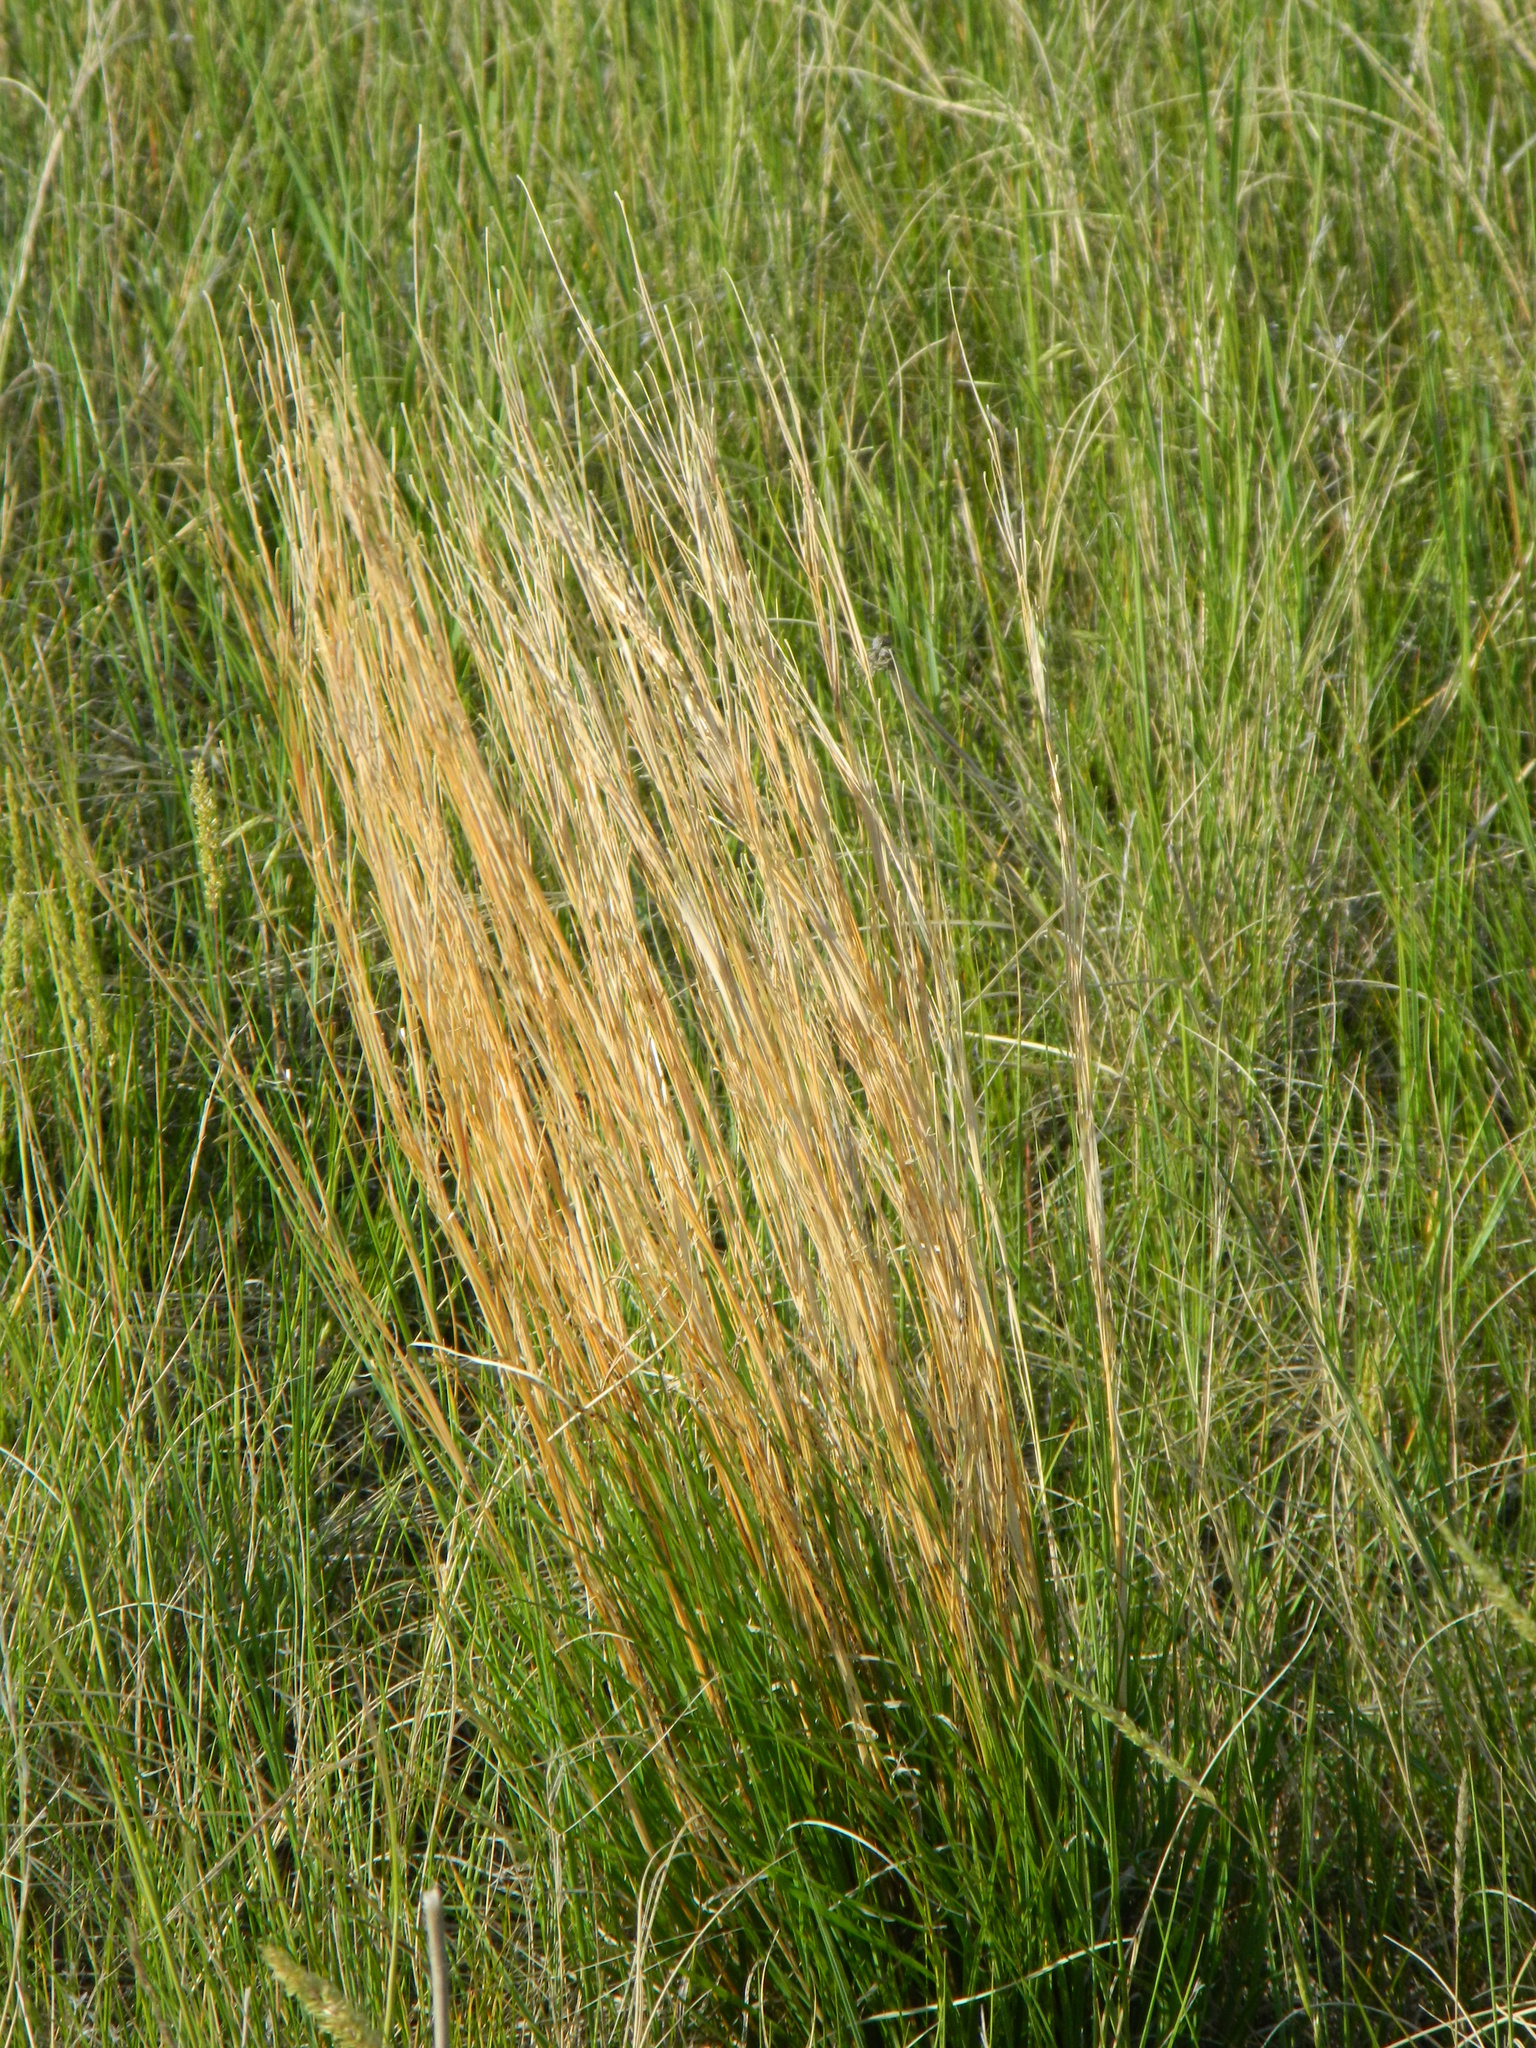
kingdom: Plantae
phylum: Tracheophyta
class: Liliopsida
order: Poales
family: Poaceae
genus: Schizachyrium
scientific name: Schizachyrium scoparium
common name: Little bluestem
